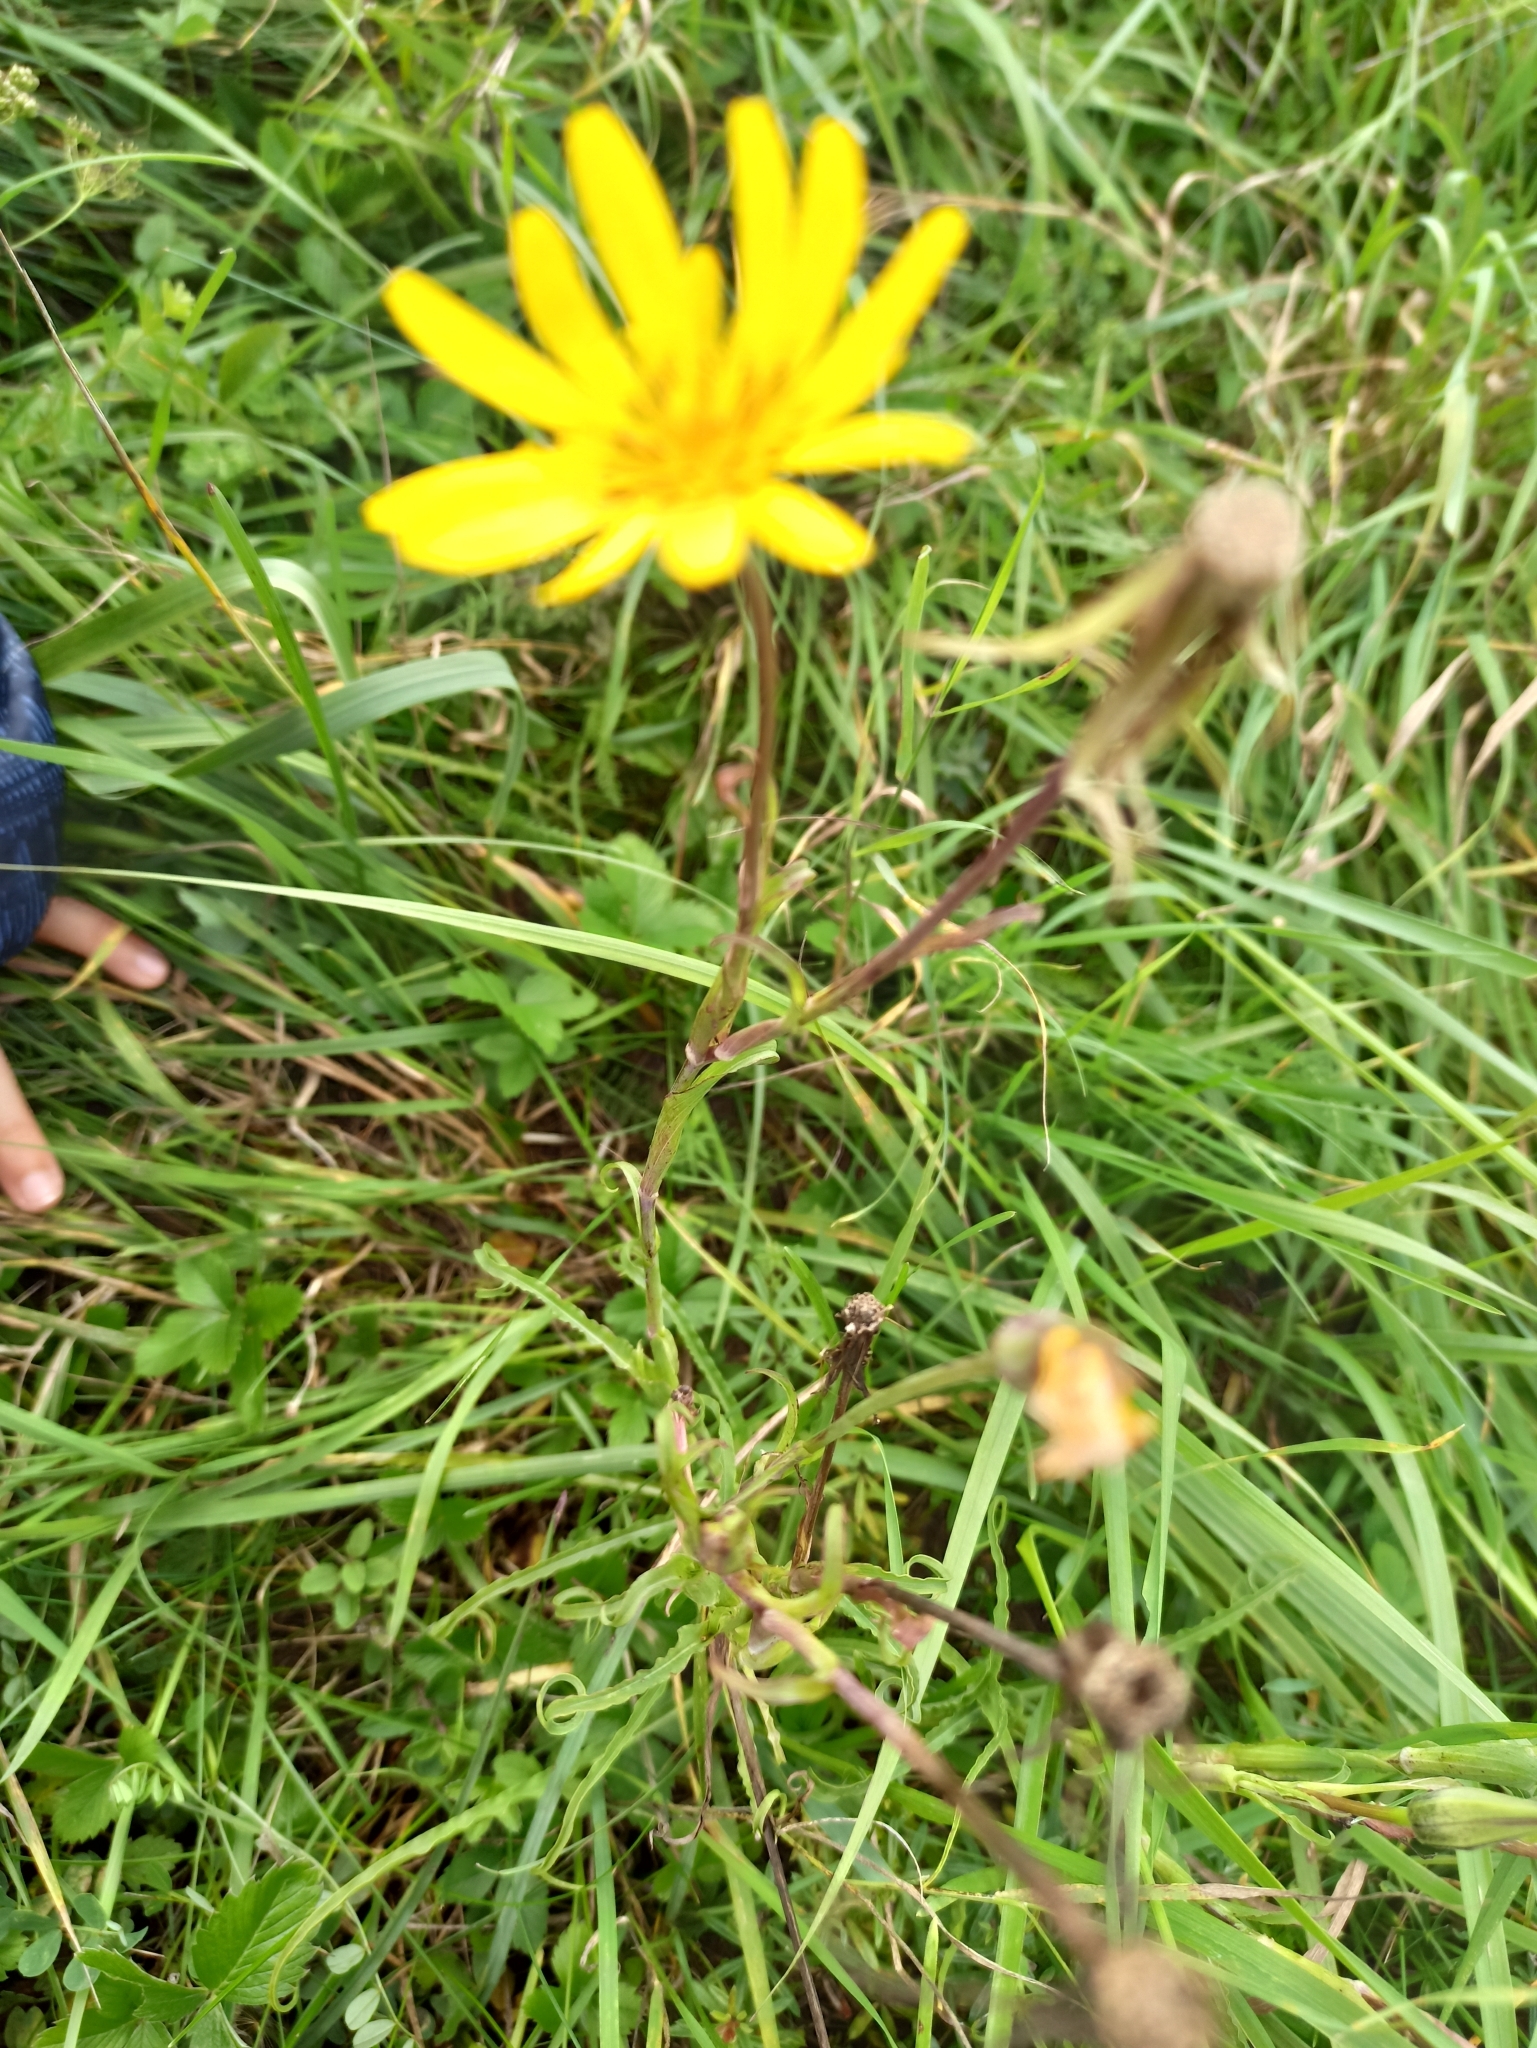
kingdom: Plantae
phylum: Tracheophyta
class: Magnoliopsida
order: Asterales
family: Asteraceae
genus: Tragopogon
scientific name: Tragopogon orientalis
